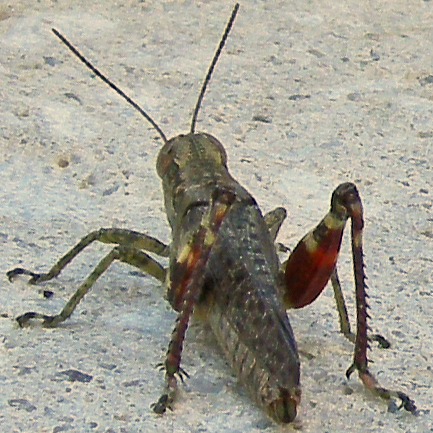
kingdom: Animalia
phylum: Arthropoda
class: Insecta
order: Orthoptera
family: Acrididae
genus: Melanoplus
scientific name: Melanoplus punctulatus
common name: Pine-tree spur-throat grasshopper
